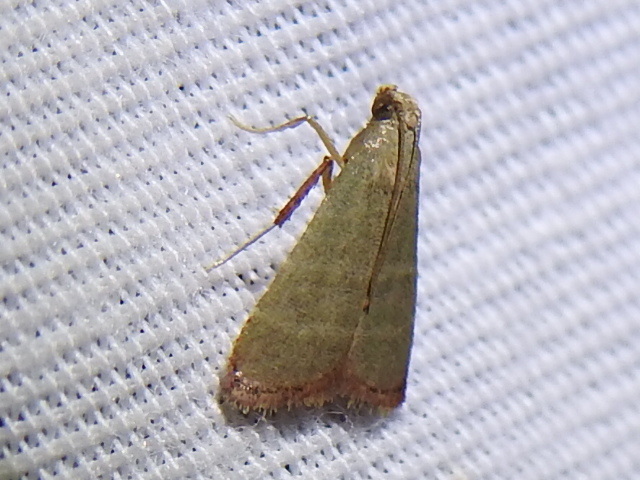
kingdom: Animalia
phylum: Arthropoda
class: Insecta
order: Lepidoptera
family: Pyralidae
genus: Arta
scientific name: Arta olivalis
